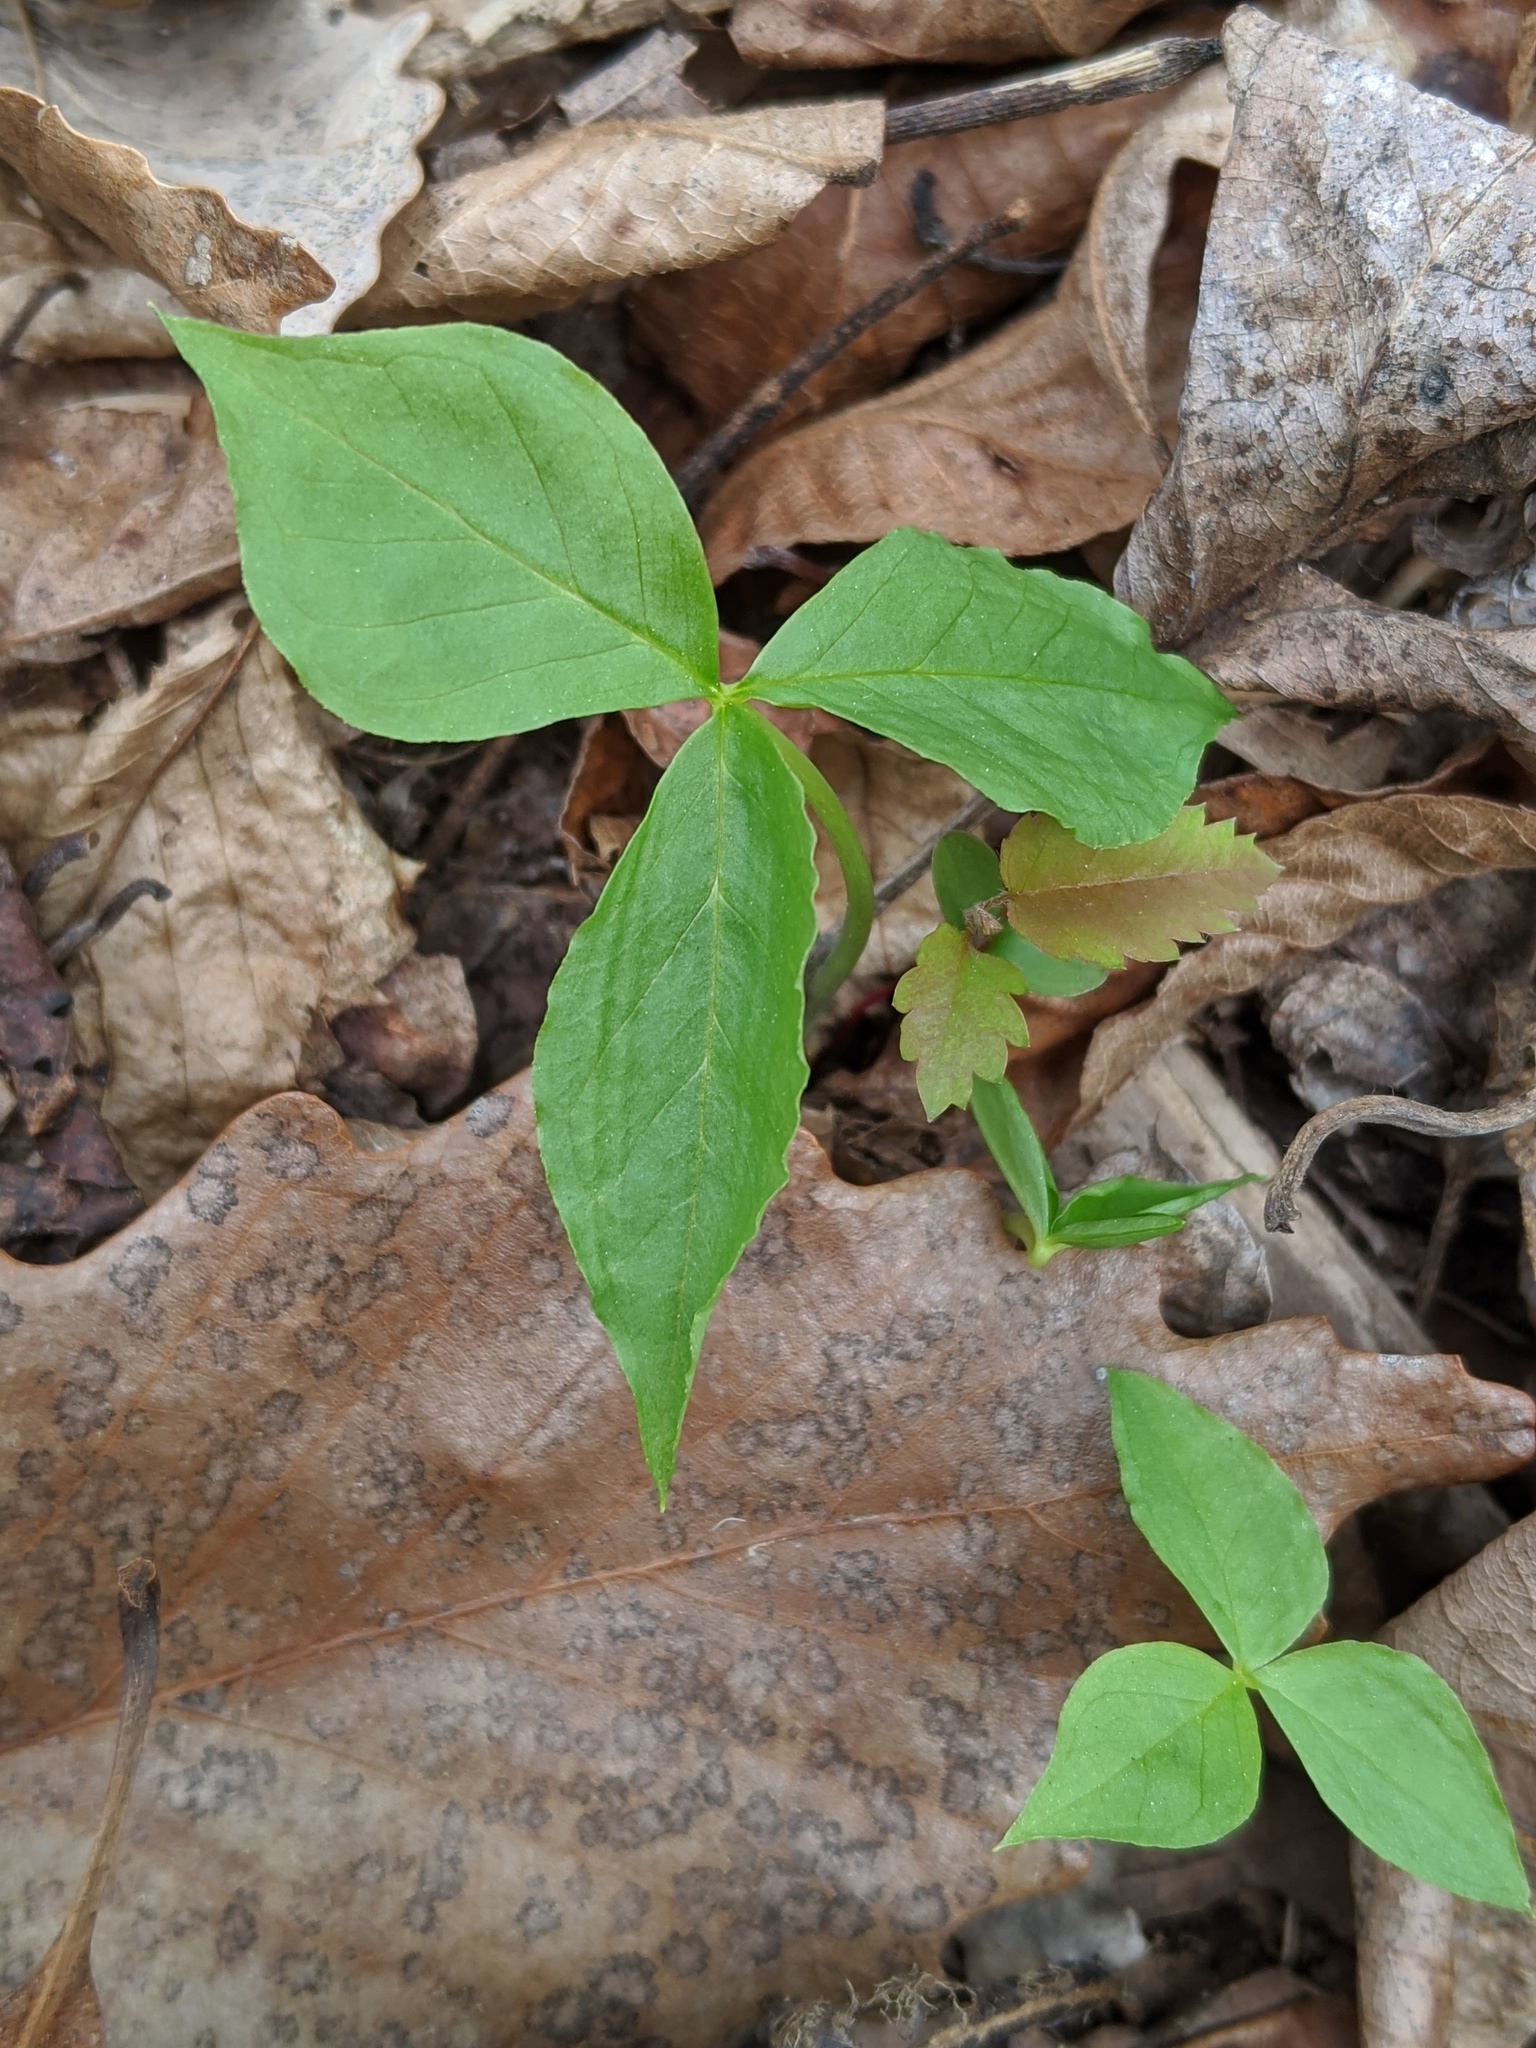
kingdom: Plantae
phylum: Tracheophyta
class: Liliopsida
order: Alismatales
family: Araceae
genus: Arisaema
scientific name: Arisaema triphyllum
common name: Jack-in-the-pulpit
